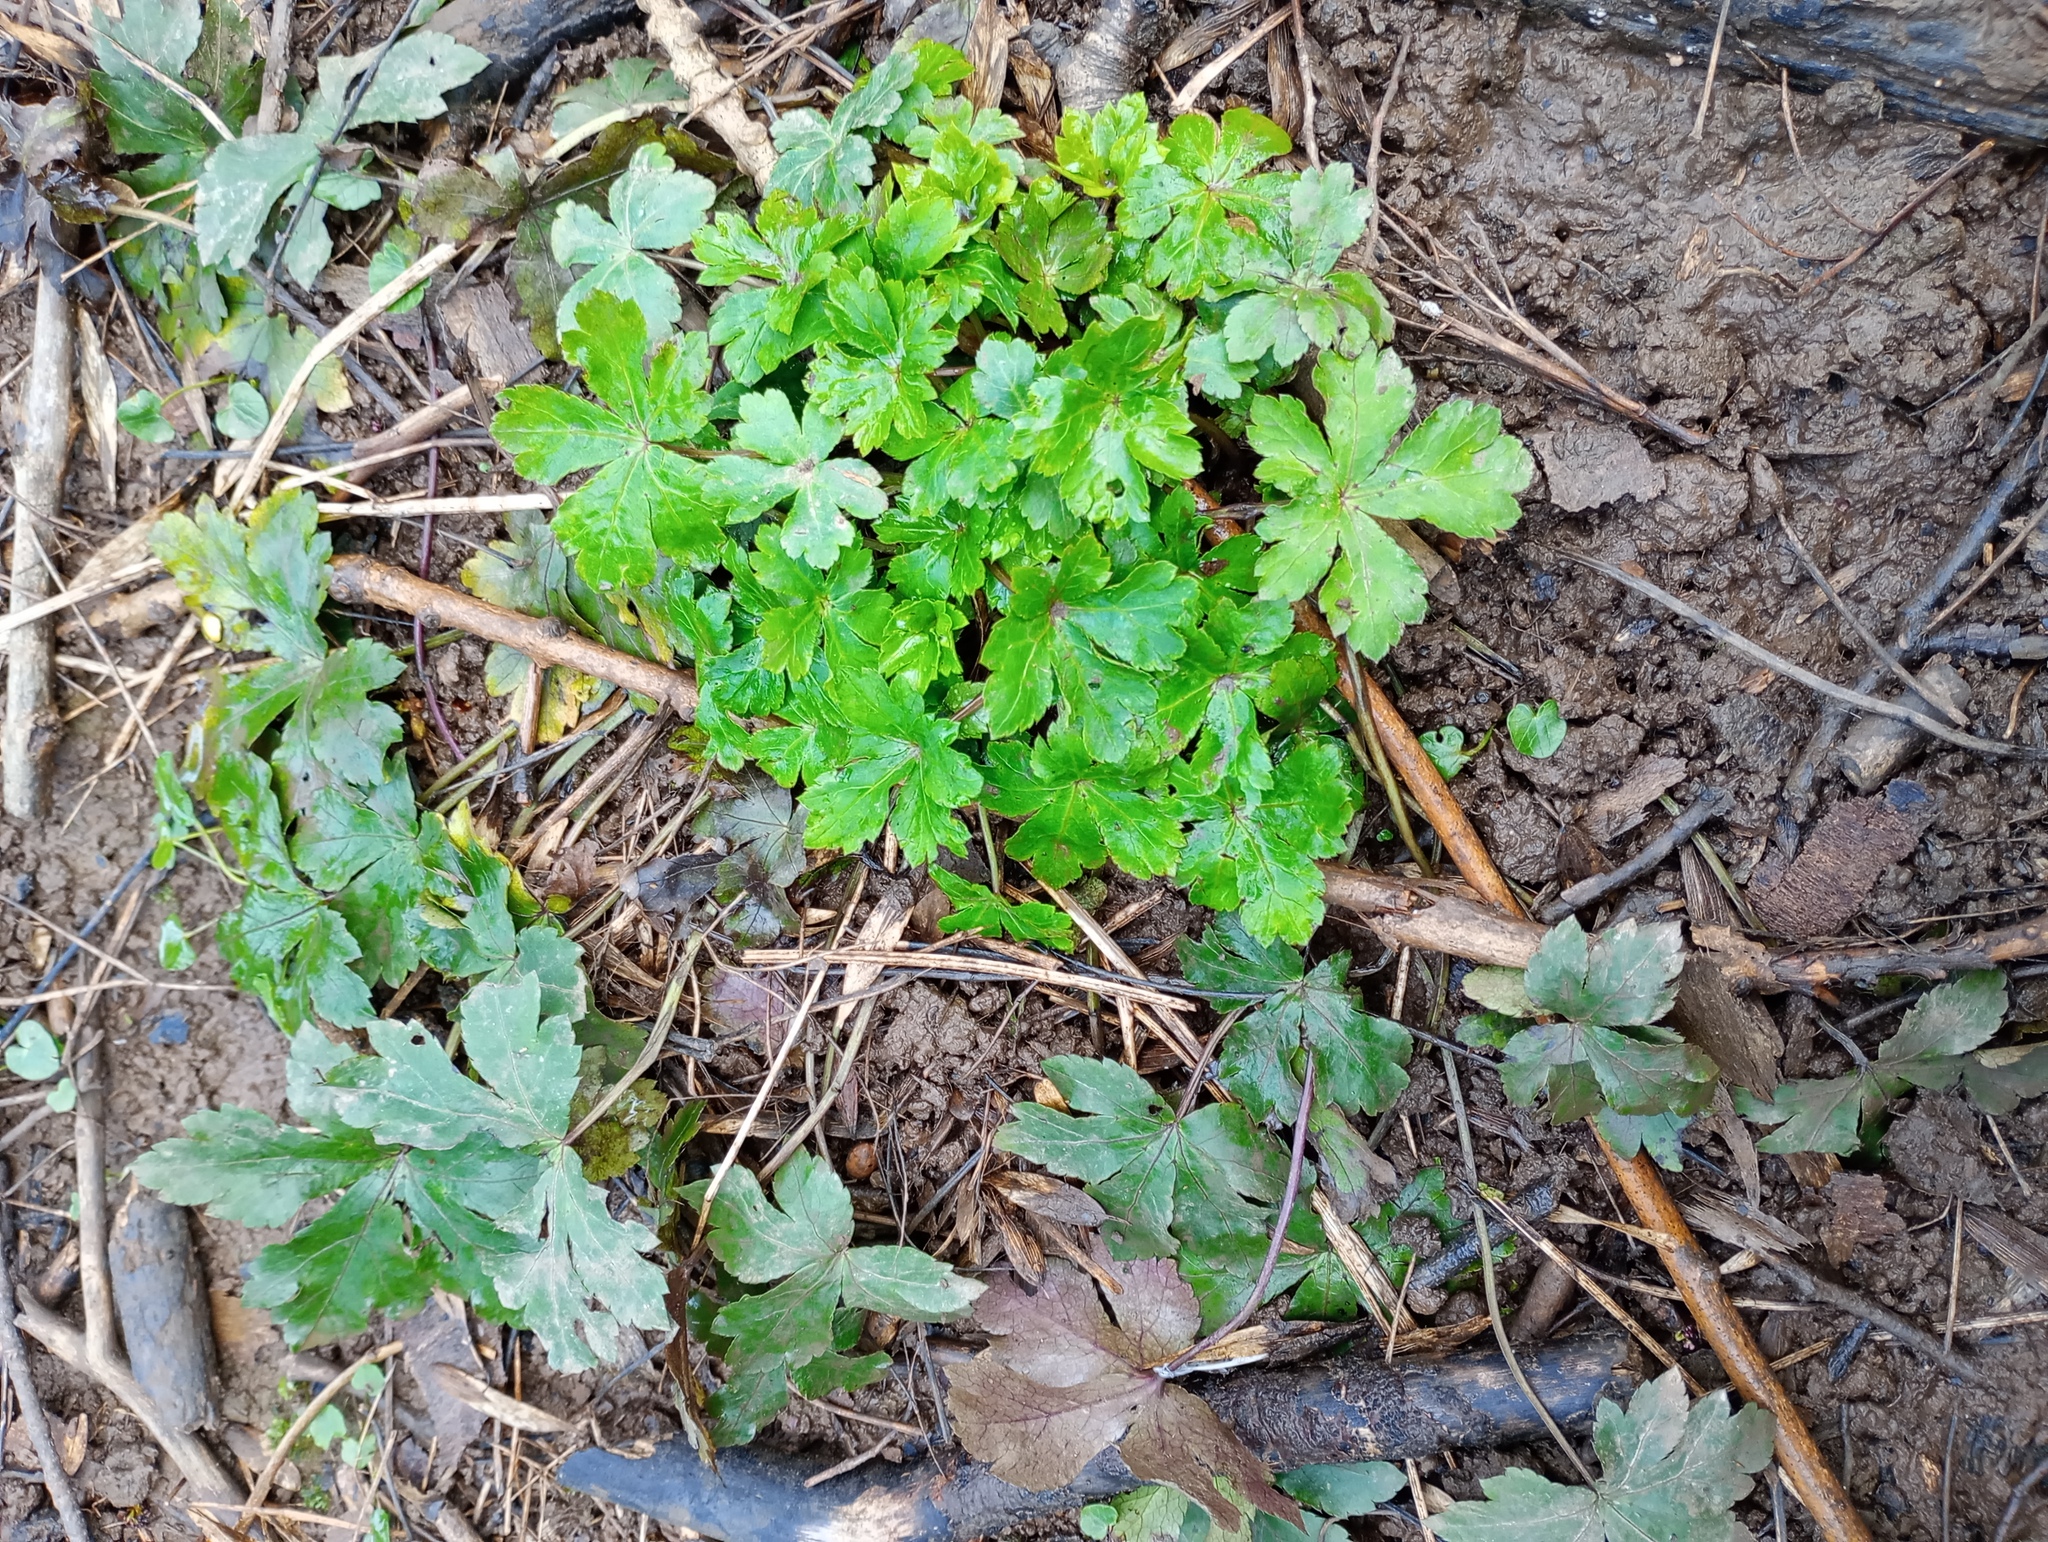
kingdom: Plantae
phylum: Tracheophyta
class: Magnoliopsida
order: Apiales
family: Apiaceae
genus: Sanicula
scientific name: Sanicula europaea
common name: Sanicle
